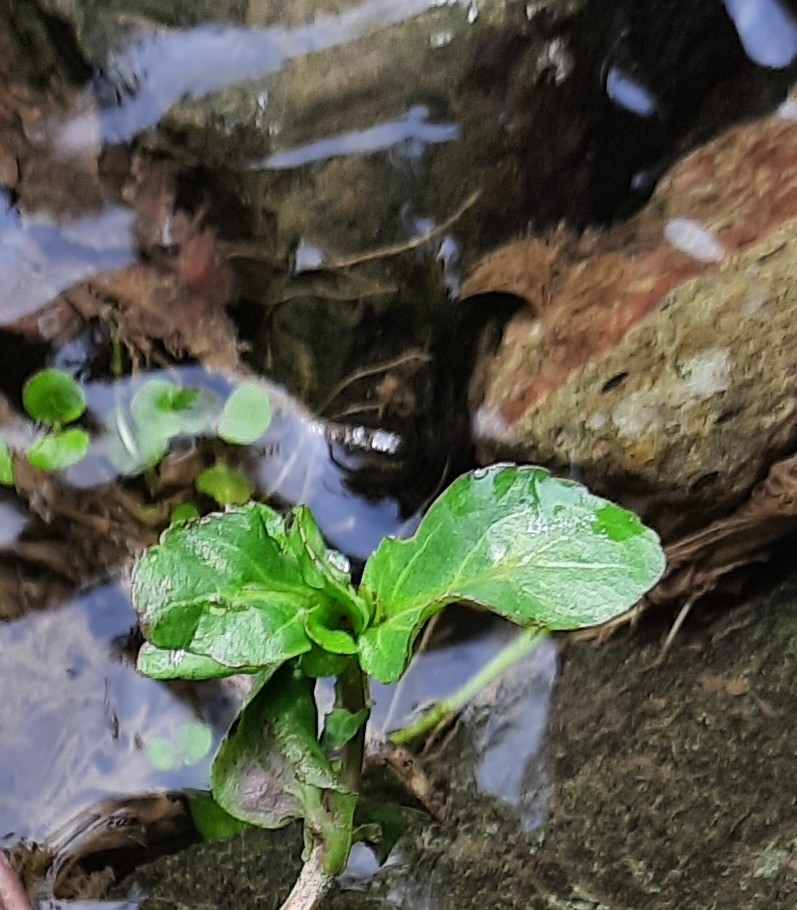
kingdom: Plantae
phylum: Tracheophyta
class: Magnoliopsida
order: Lamiales
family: Plantaginaceae
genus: Veronica
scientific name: Veronica beccabunga
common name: Brooklime
